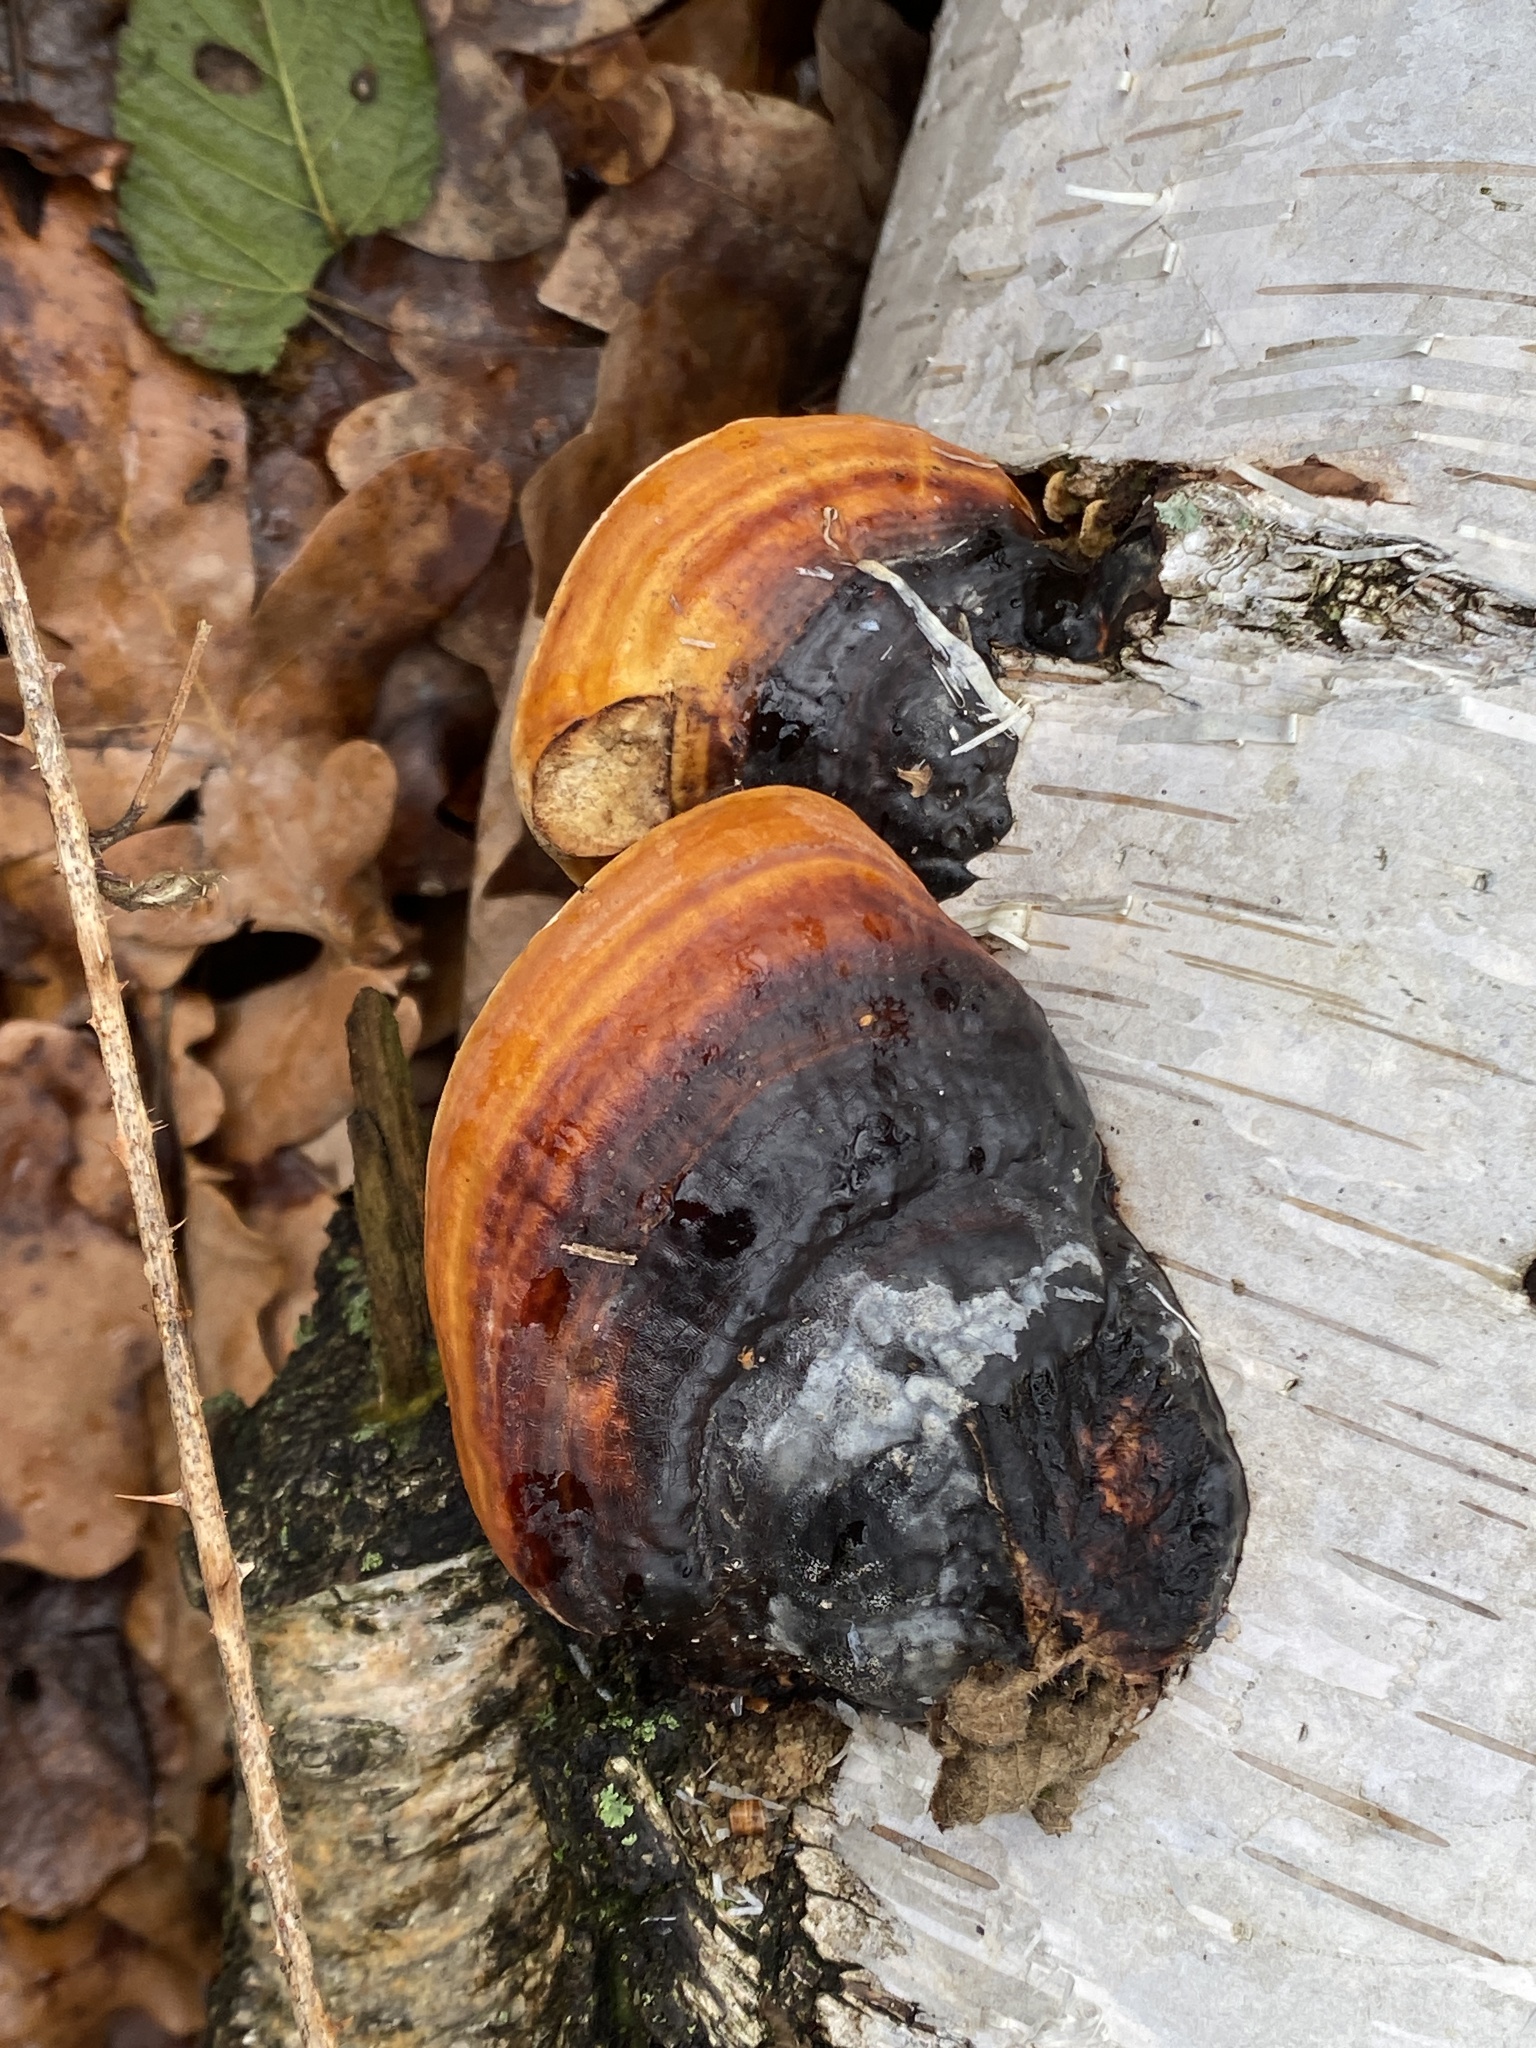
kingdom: Fungi
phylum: Basidiomycota
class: Agaricomycetes
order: Polyporales
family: Fomitopsidaceae
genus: Fomitopsis
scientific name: Fomitopsis pinicola
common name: Red-belted bracket
